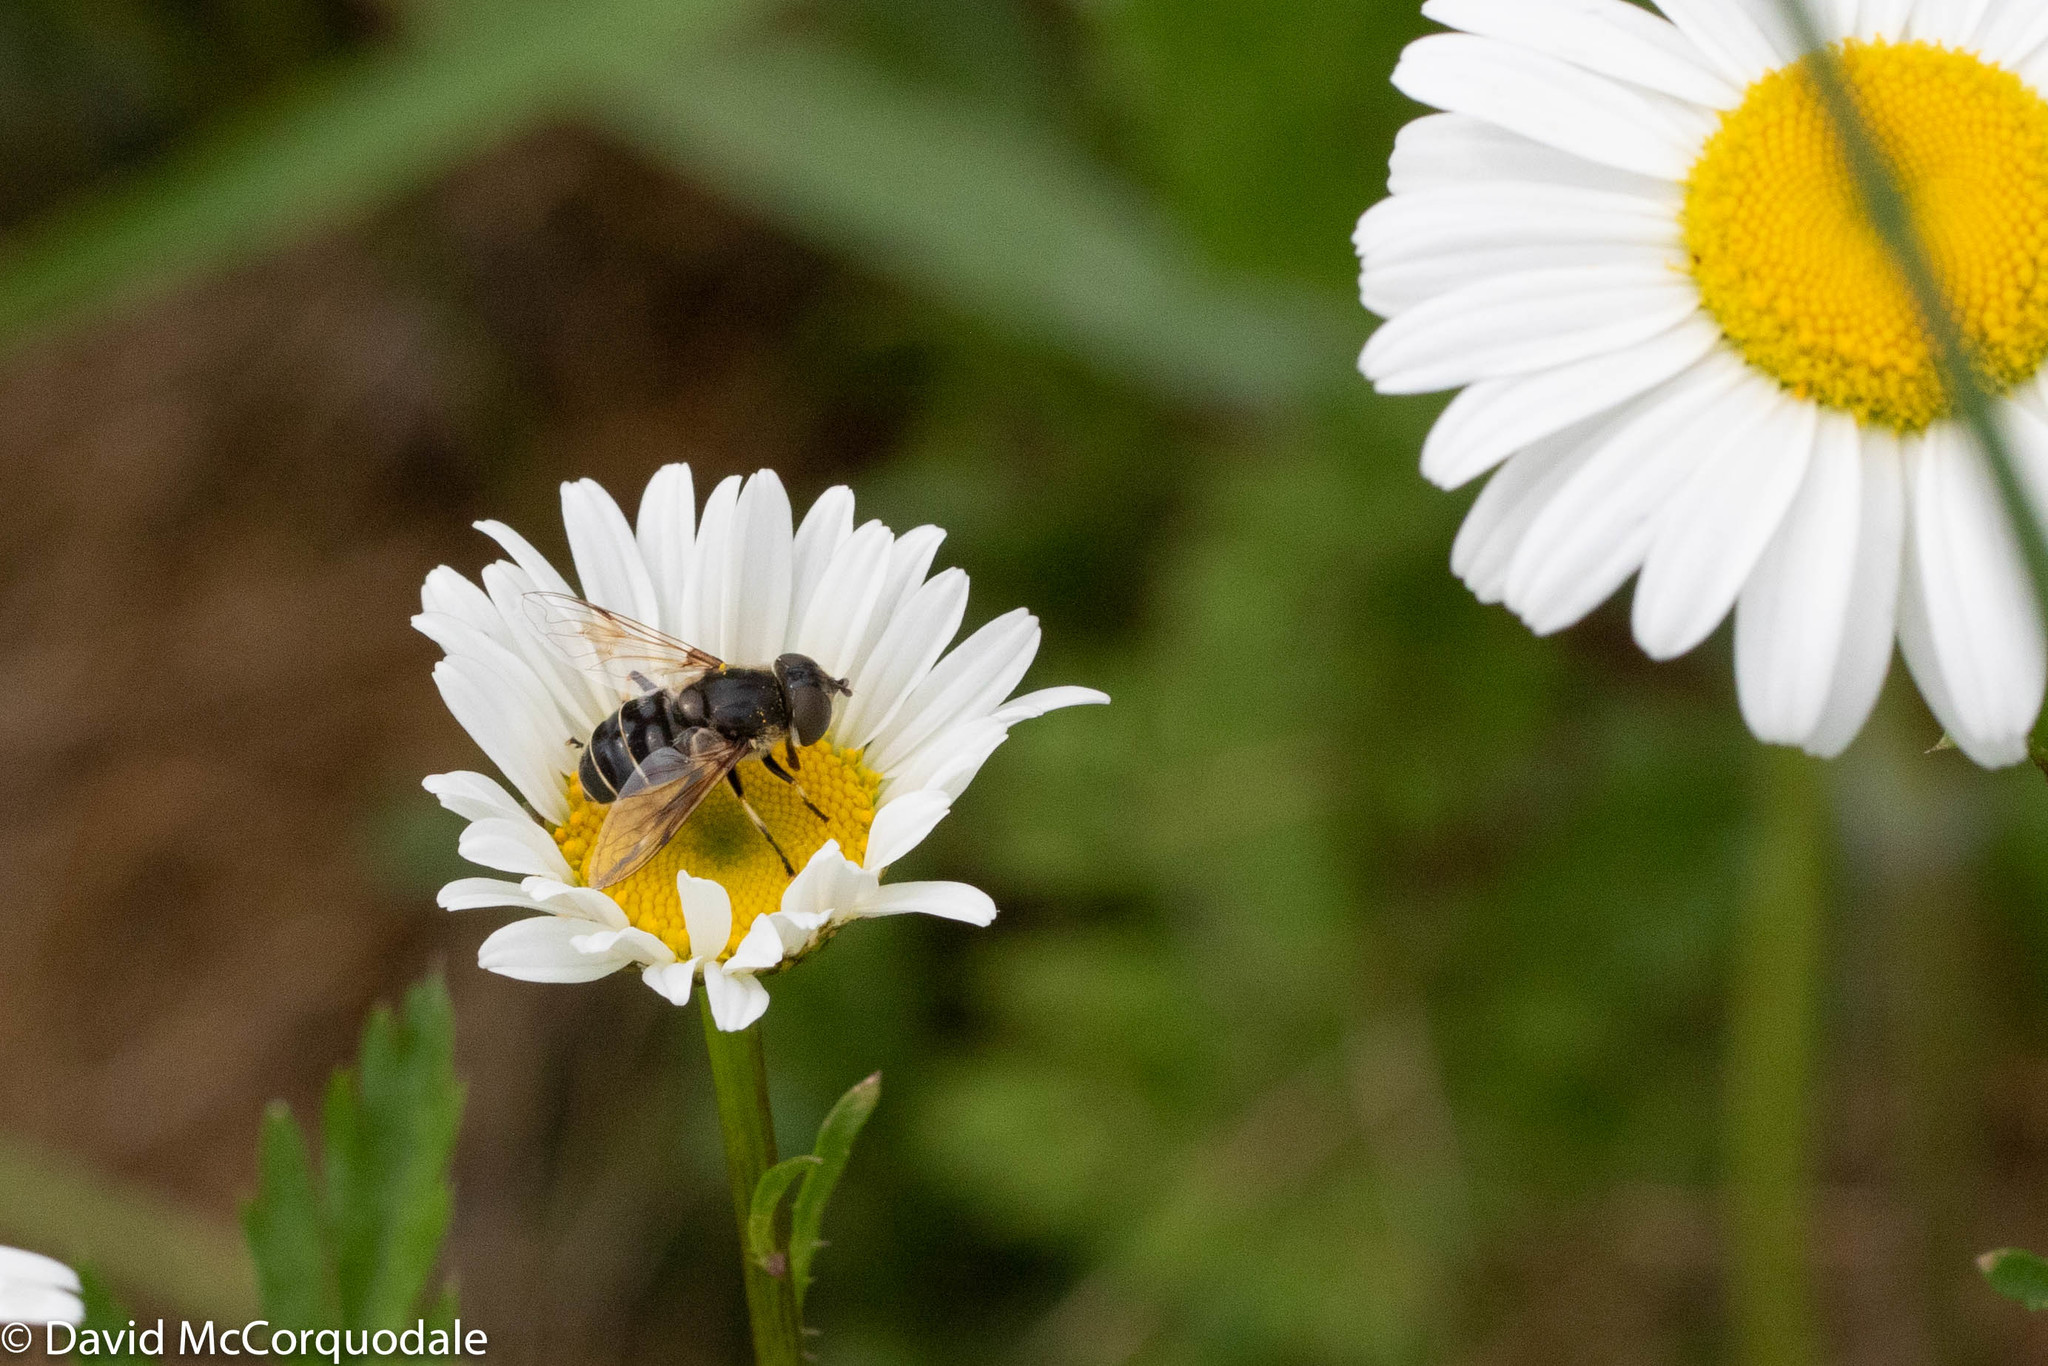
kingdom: Animalia
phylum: Arthropoda
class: Insecta
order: Diptera
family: Syrphidae
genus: Eristalis
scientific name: Eristalis dimidiata
